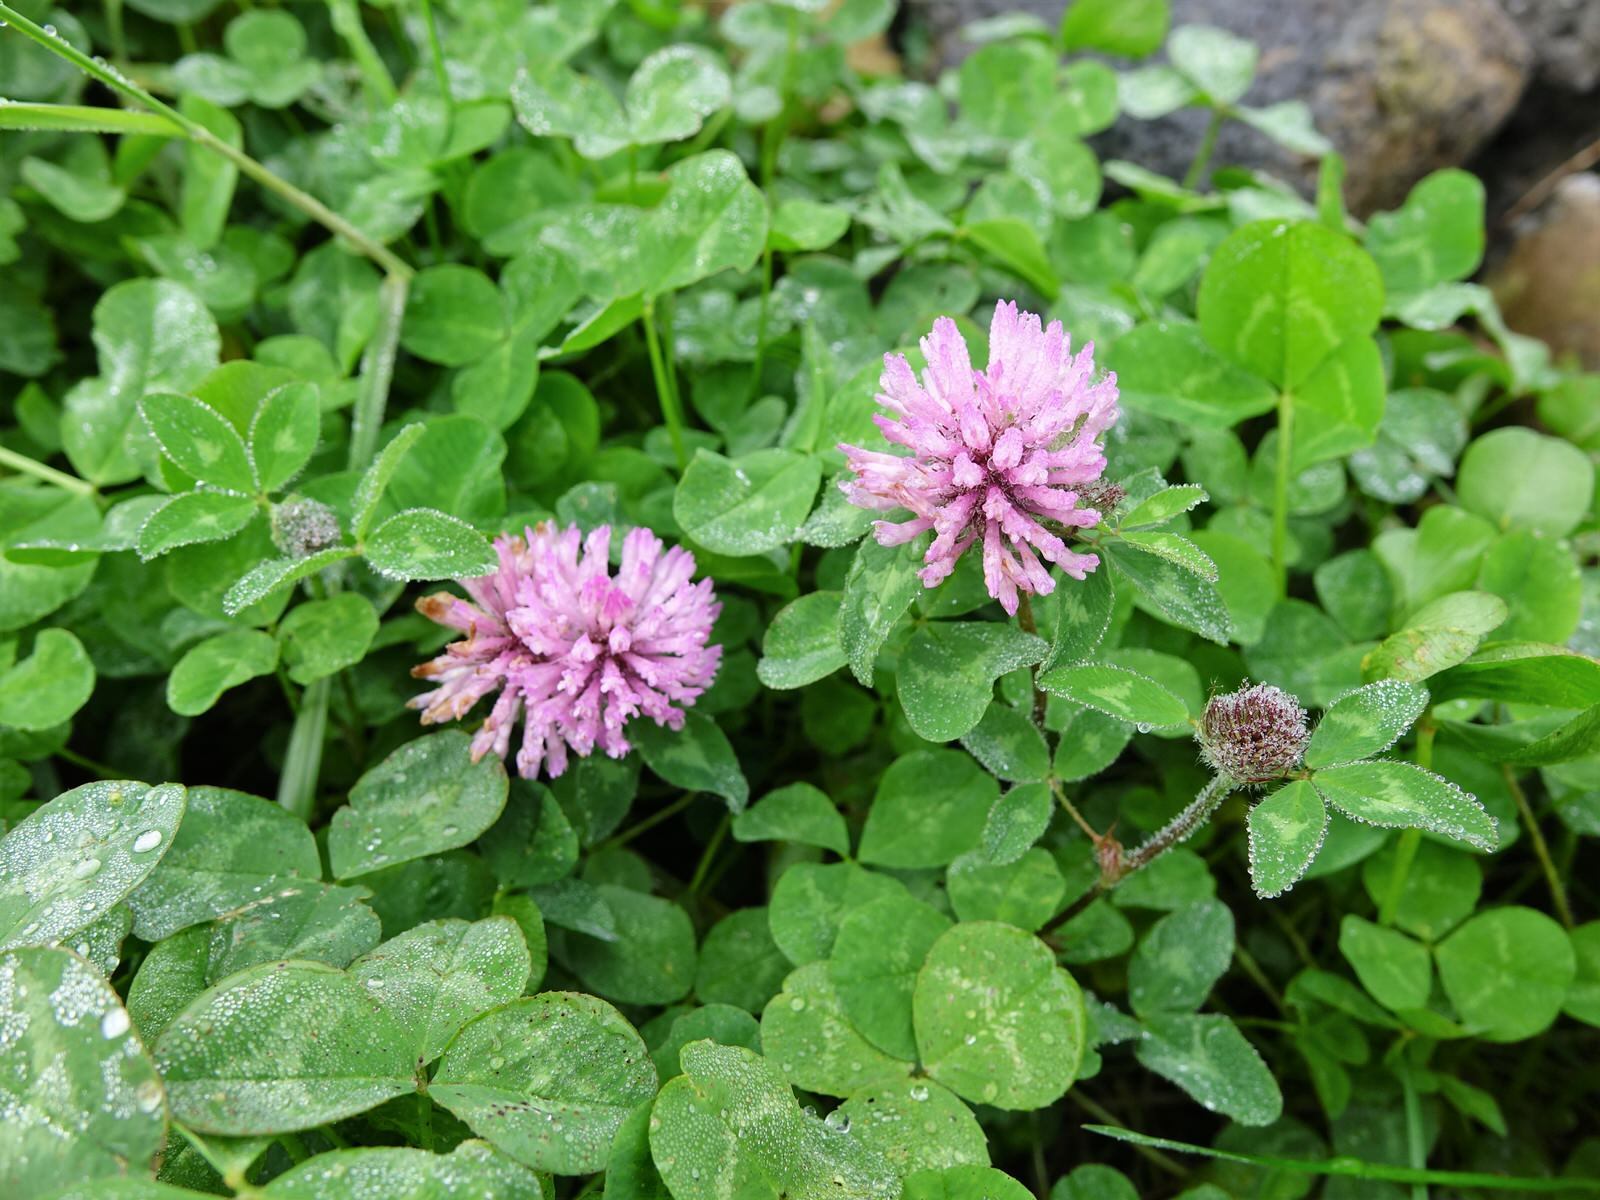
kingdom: Plantae
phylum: Tracheophyta
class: Magnoliopsida
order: Fabales
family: Fabaceae
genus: Trifolium
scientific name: Trifolium pratense
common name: Red clover
